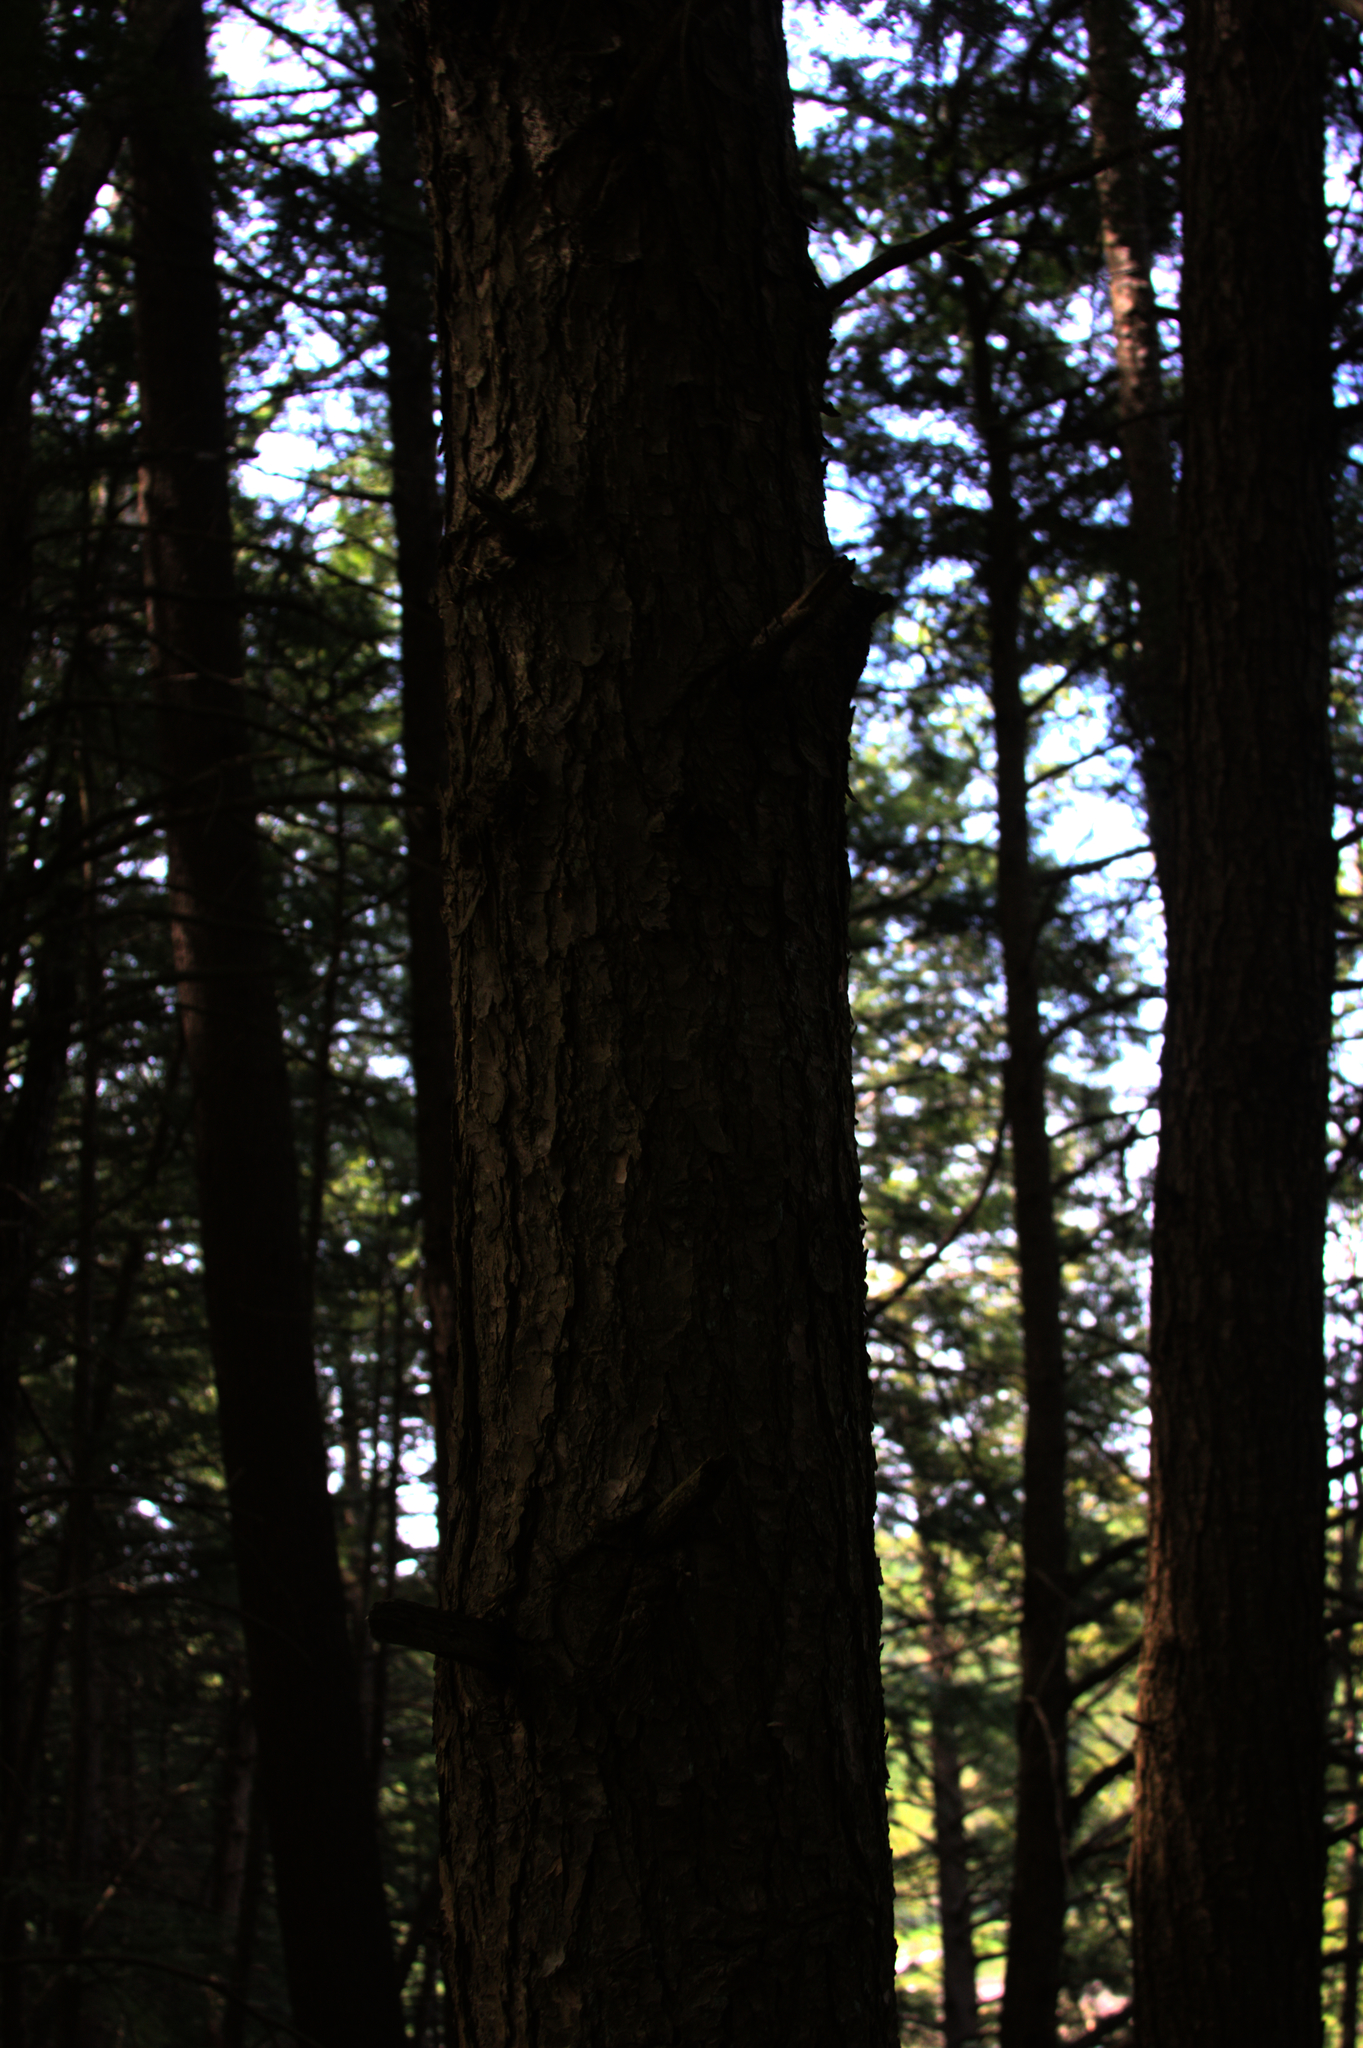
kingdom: Plantae
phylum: Tracheophyta
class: Pinopsida
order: Pinales
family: Pinaceae
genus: Tsuga
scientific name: Tsuga canadensis
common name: Eastern hemlock
